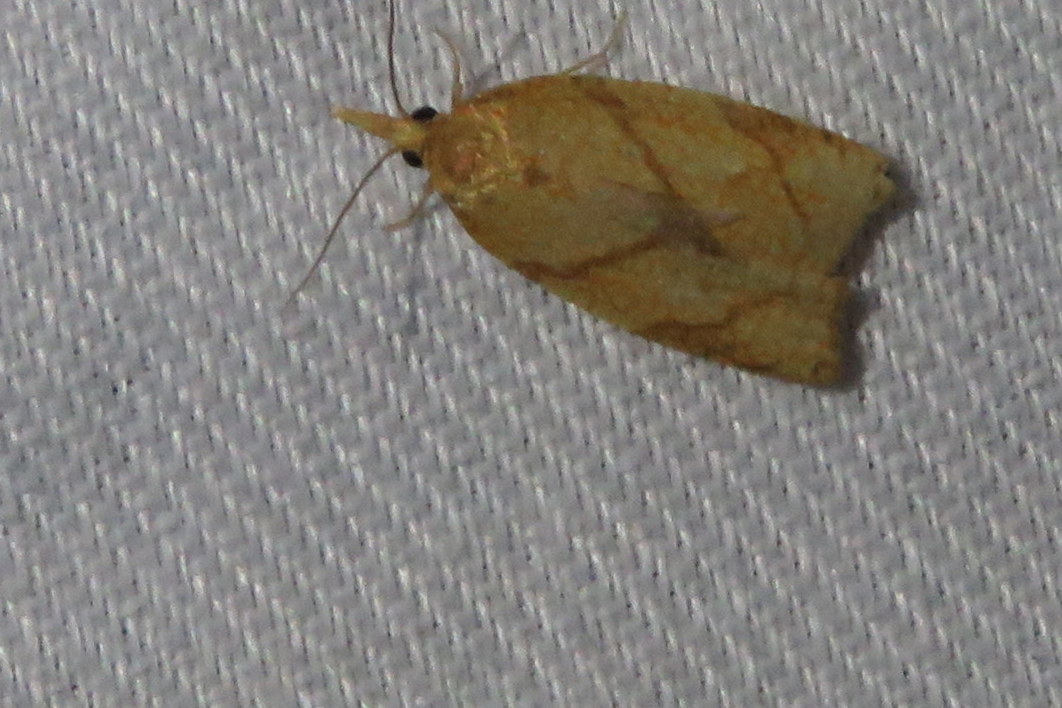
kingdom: Animalia
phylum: Arthropoda
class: Insecta
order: Lepidoptera
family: Tortricidae
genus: Cenopis
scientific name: Cenopis reticulatana
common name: Reticulated fruitworm moth
